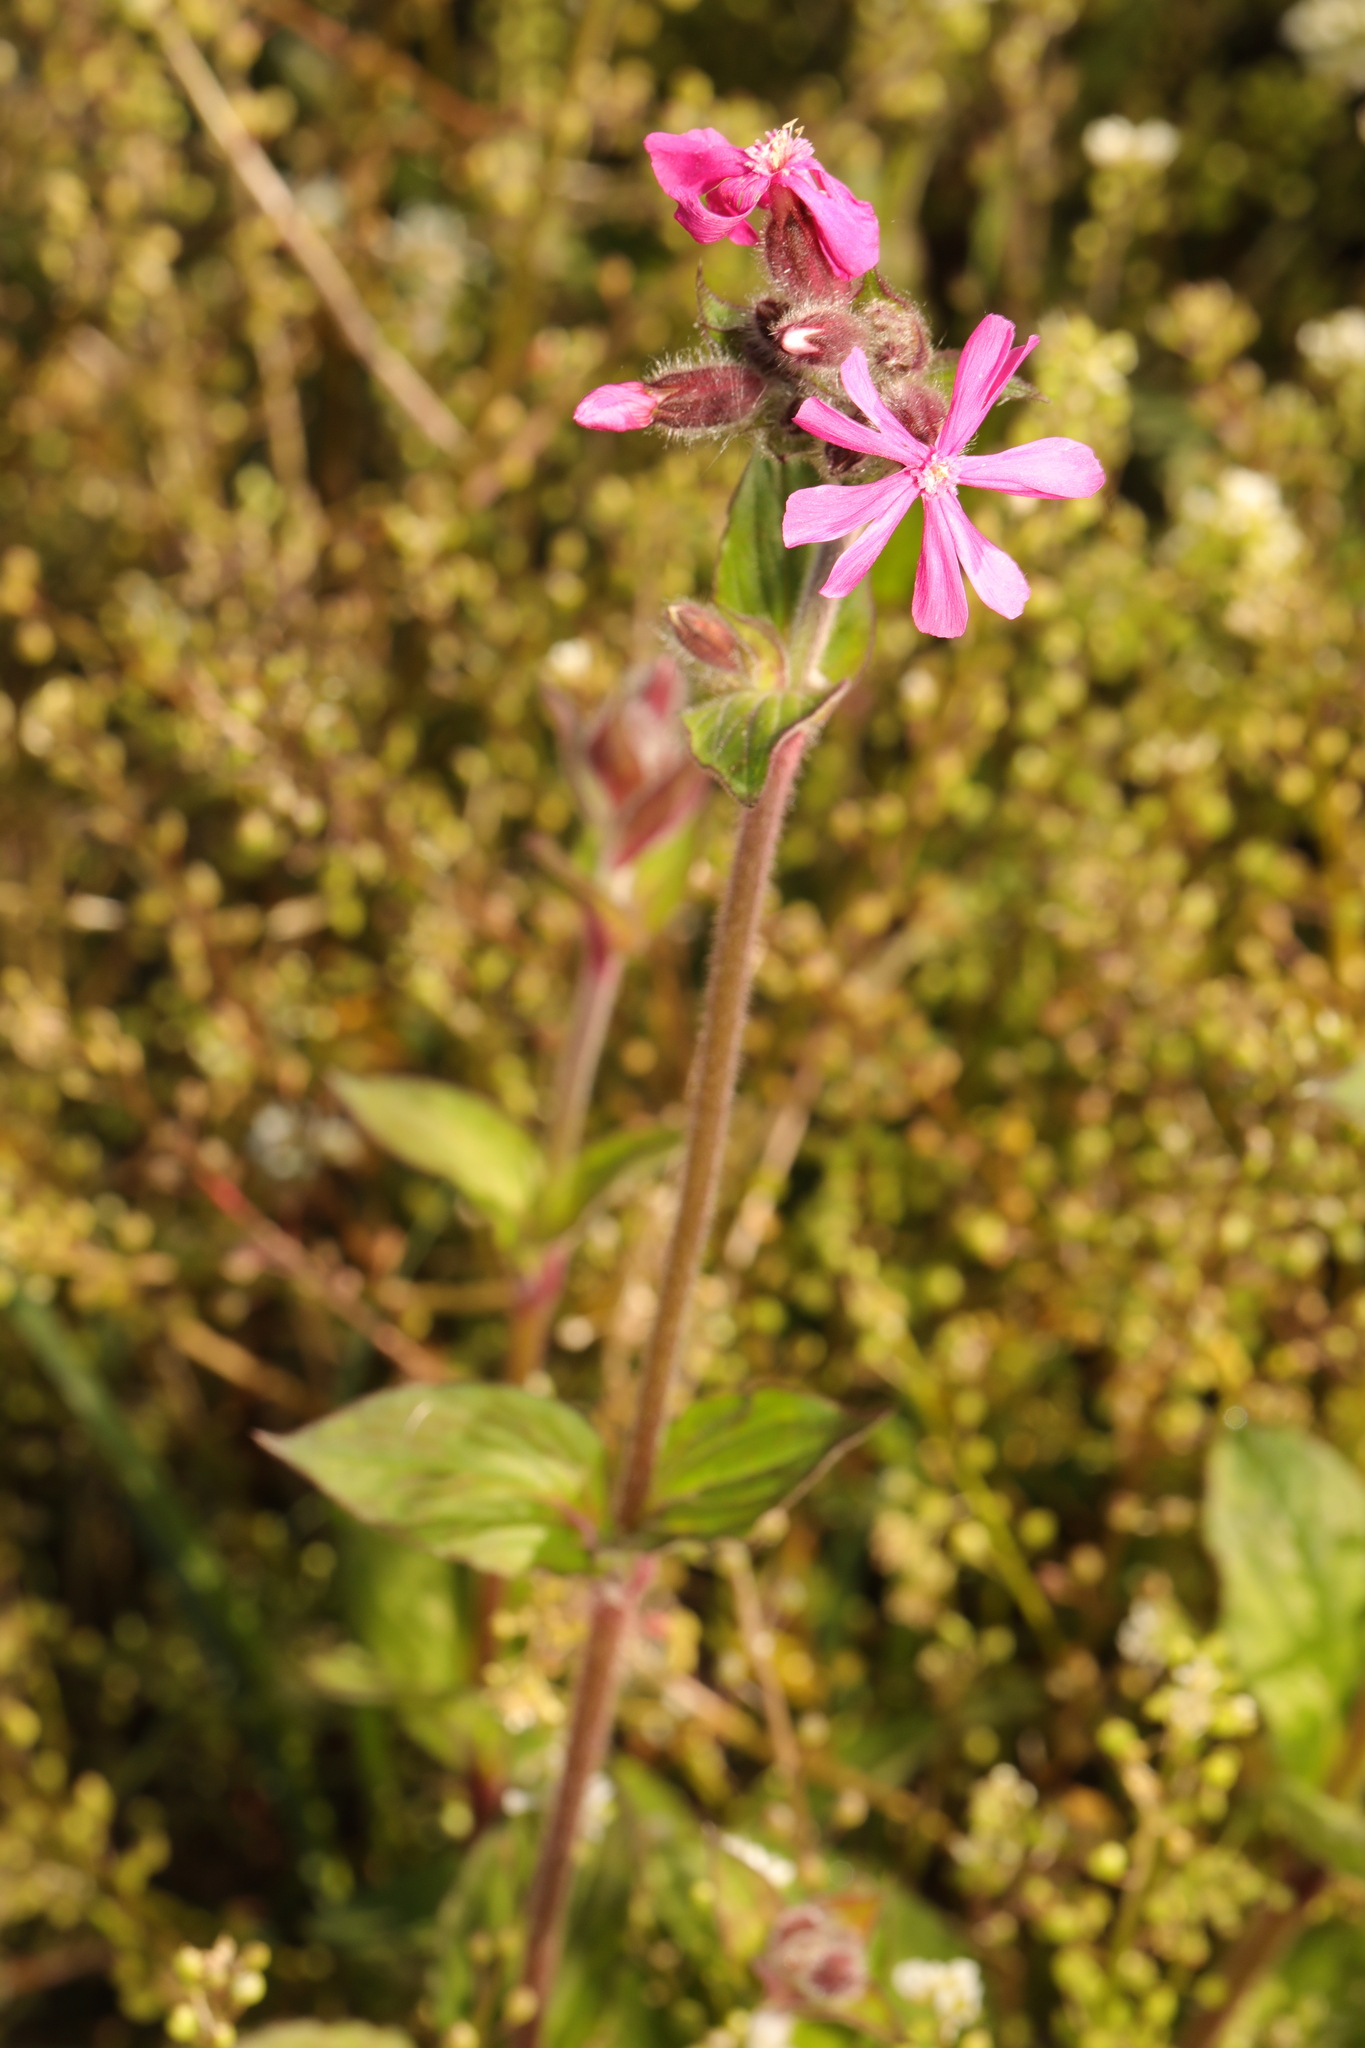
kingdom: Plantae
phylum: Tracheophyta
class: Magnoliopsida
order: Caryophyllales
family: Caryophyllaceae
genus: Silene
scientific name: Silene dioica
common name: Red campion
